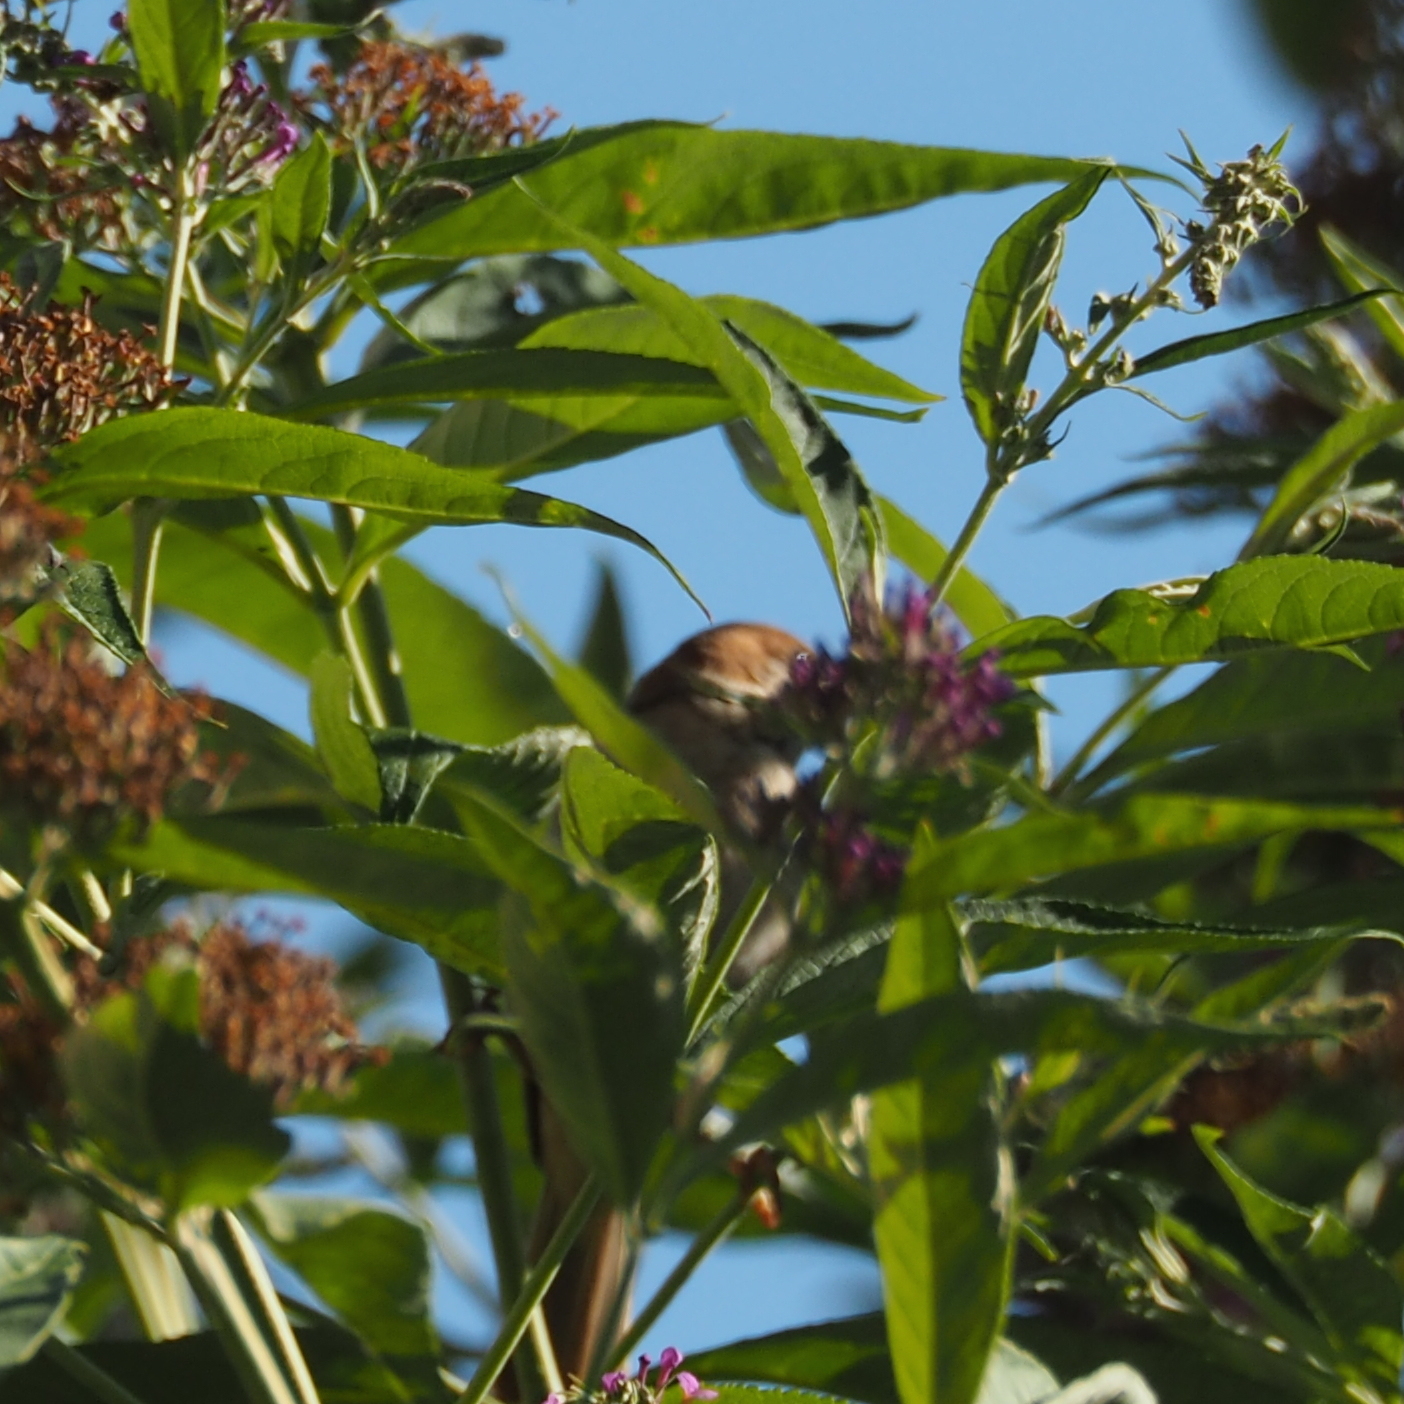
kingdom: Animalia
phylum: Chordata
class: Aves
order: Passeriformes
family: Passeridae
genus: Passer
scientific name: Passer montanus
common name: Eurasian tree sparrow
